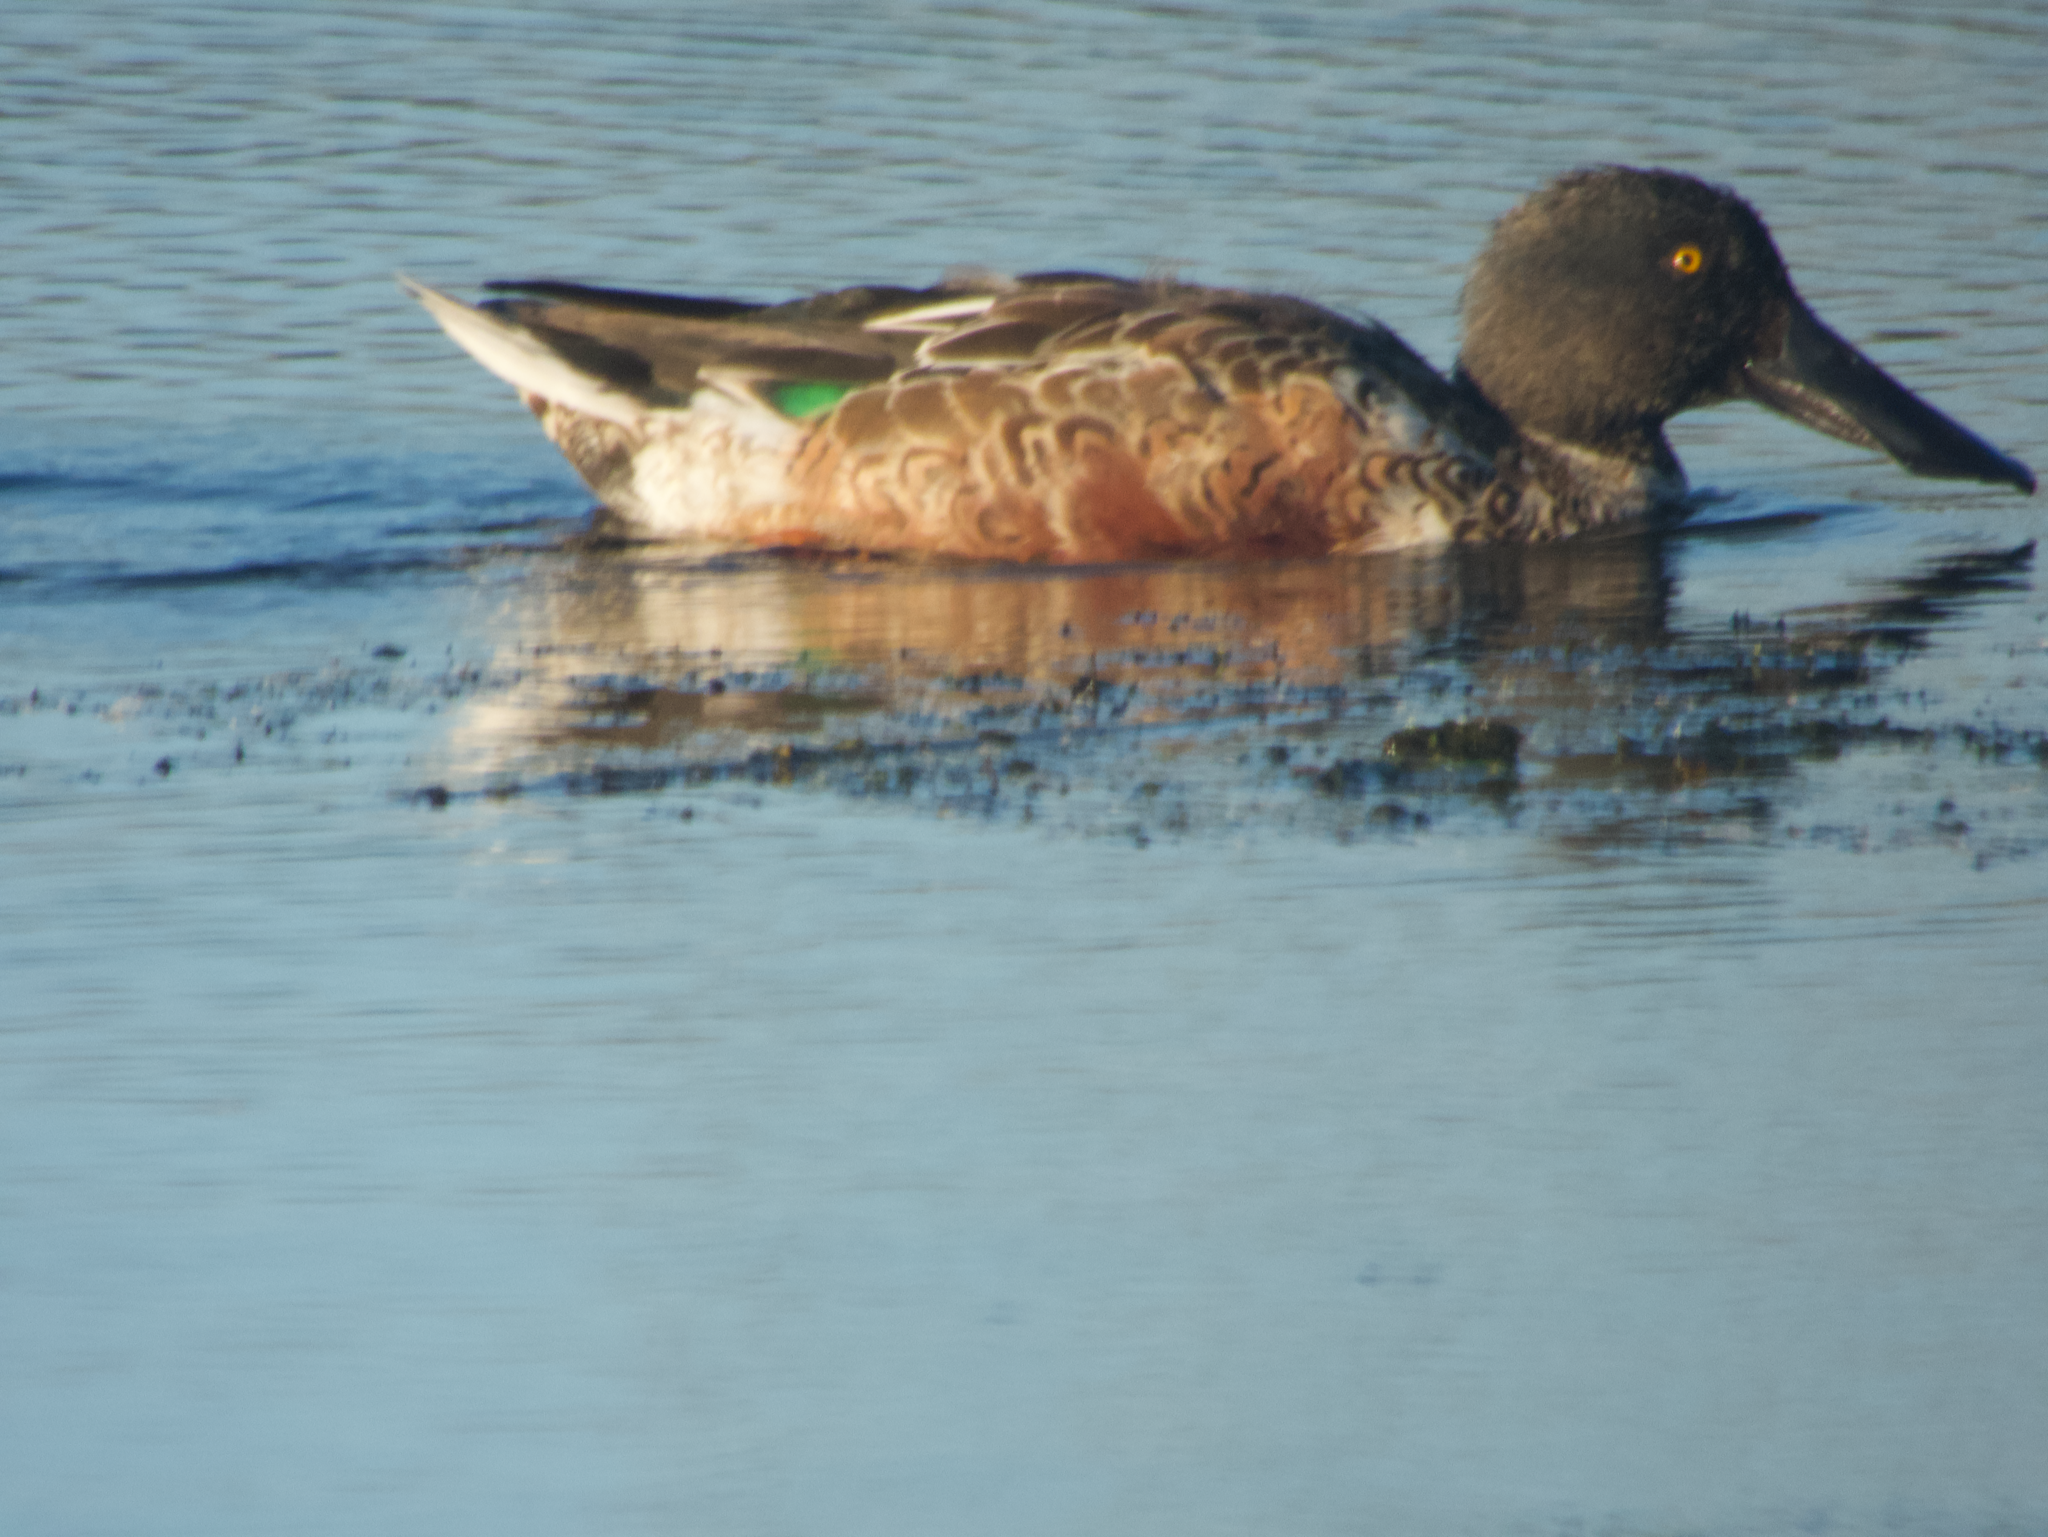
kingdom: Animalia
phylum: Chordata
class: Aves
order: Anseriformes
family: Anatidae
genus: Spatula
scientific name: Spatula clypeata
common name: Northern shoveler
